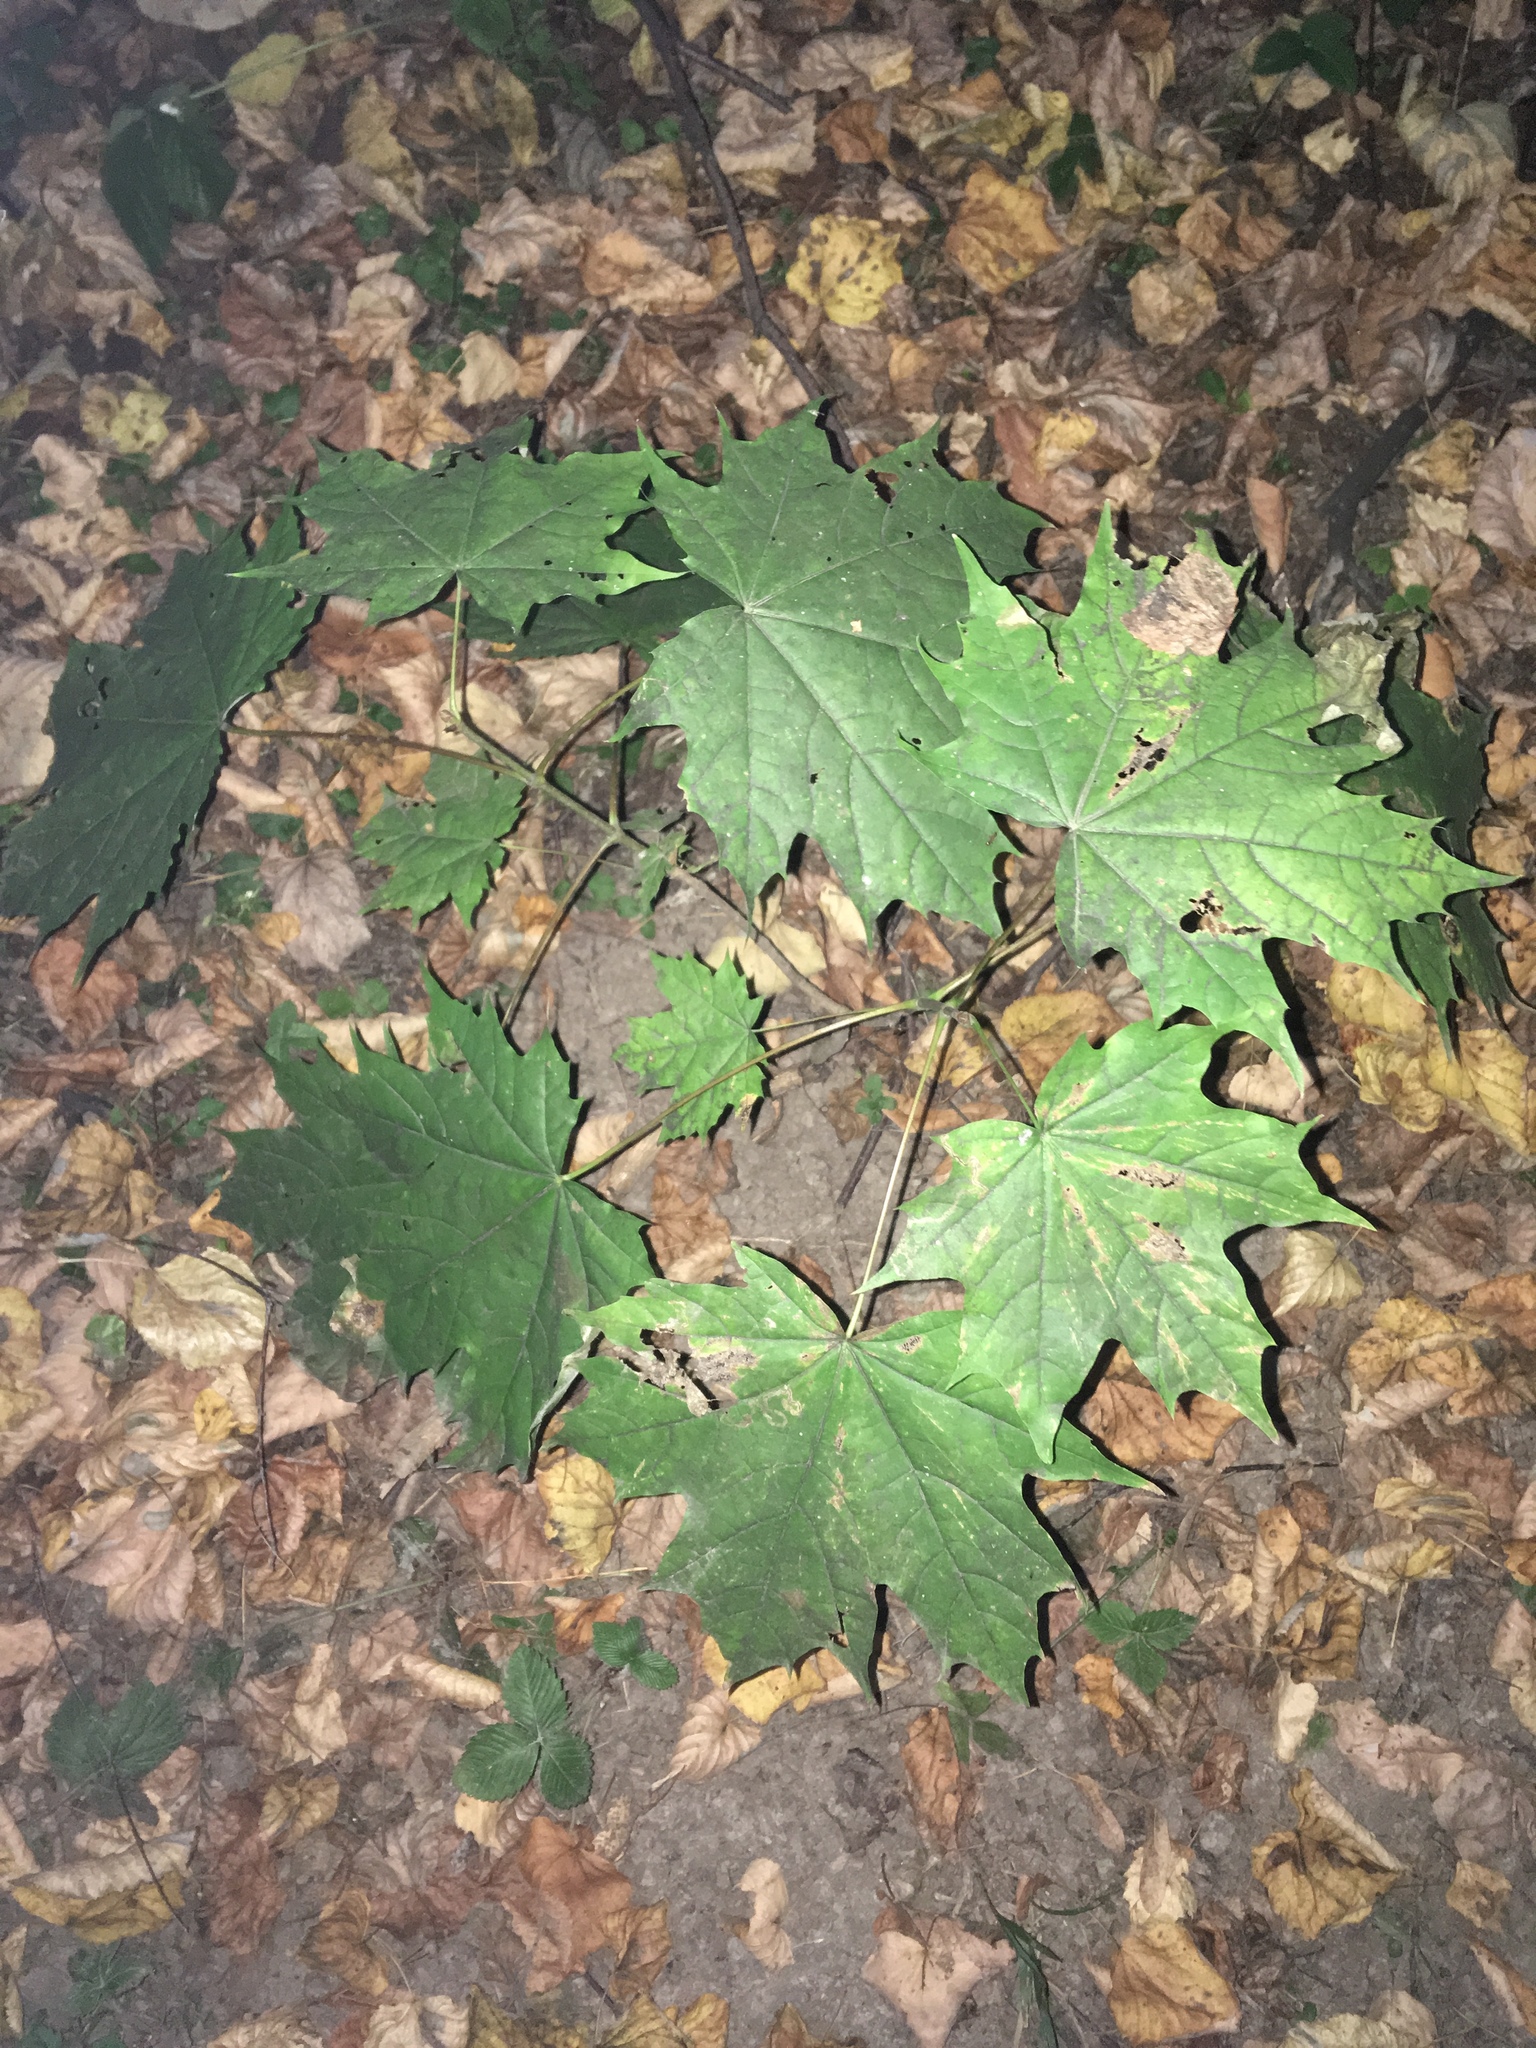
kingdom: Plantae
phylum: Tracheophyta
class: Magnoliopsida
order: Sapindales
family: Sapindaceae
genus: Acer
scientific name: Acer platanoides
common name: Norway maple
